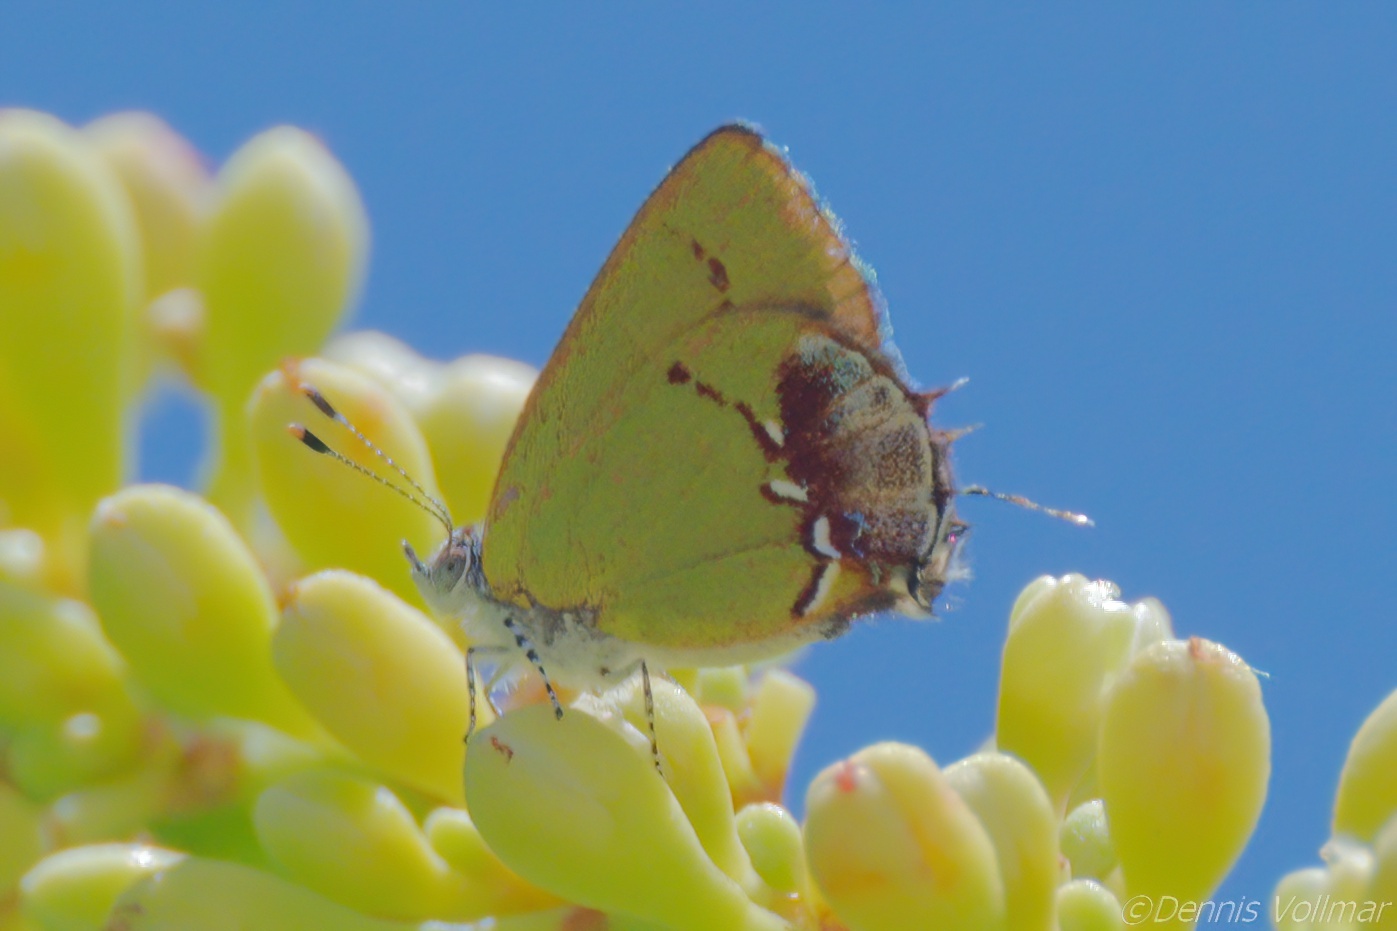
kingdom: Animalia
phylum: Arthropoda
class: Insecta
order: Lepidoptera
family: Lycaenidae
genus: Thecla
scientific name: Thecla maesites
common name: Verde azul hairstreak
